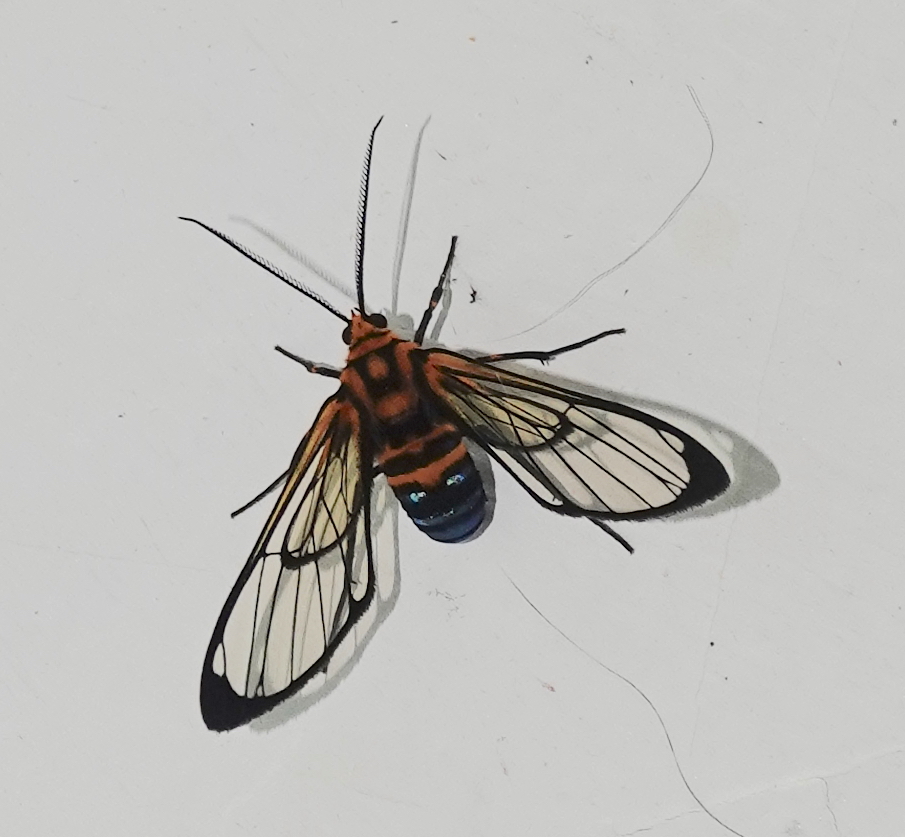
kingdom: Animalia
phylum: Arthropoda
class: Insecta
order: Lepidoptera
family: Erebidae
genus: Mesothen
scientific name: Mesothen nomia
